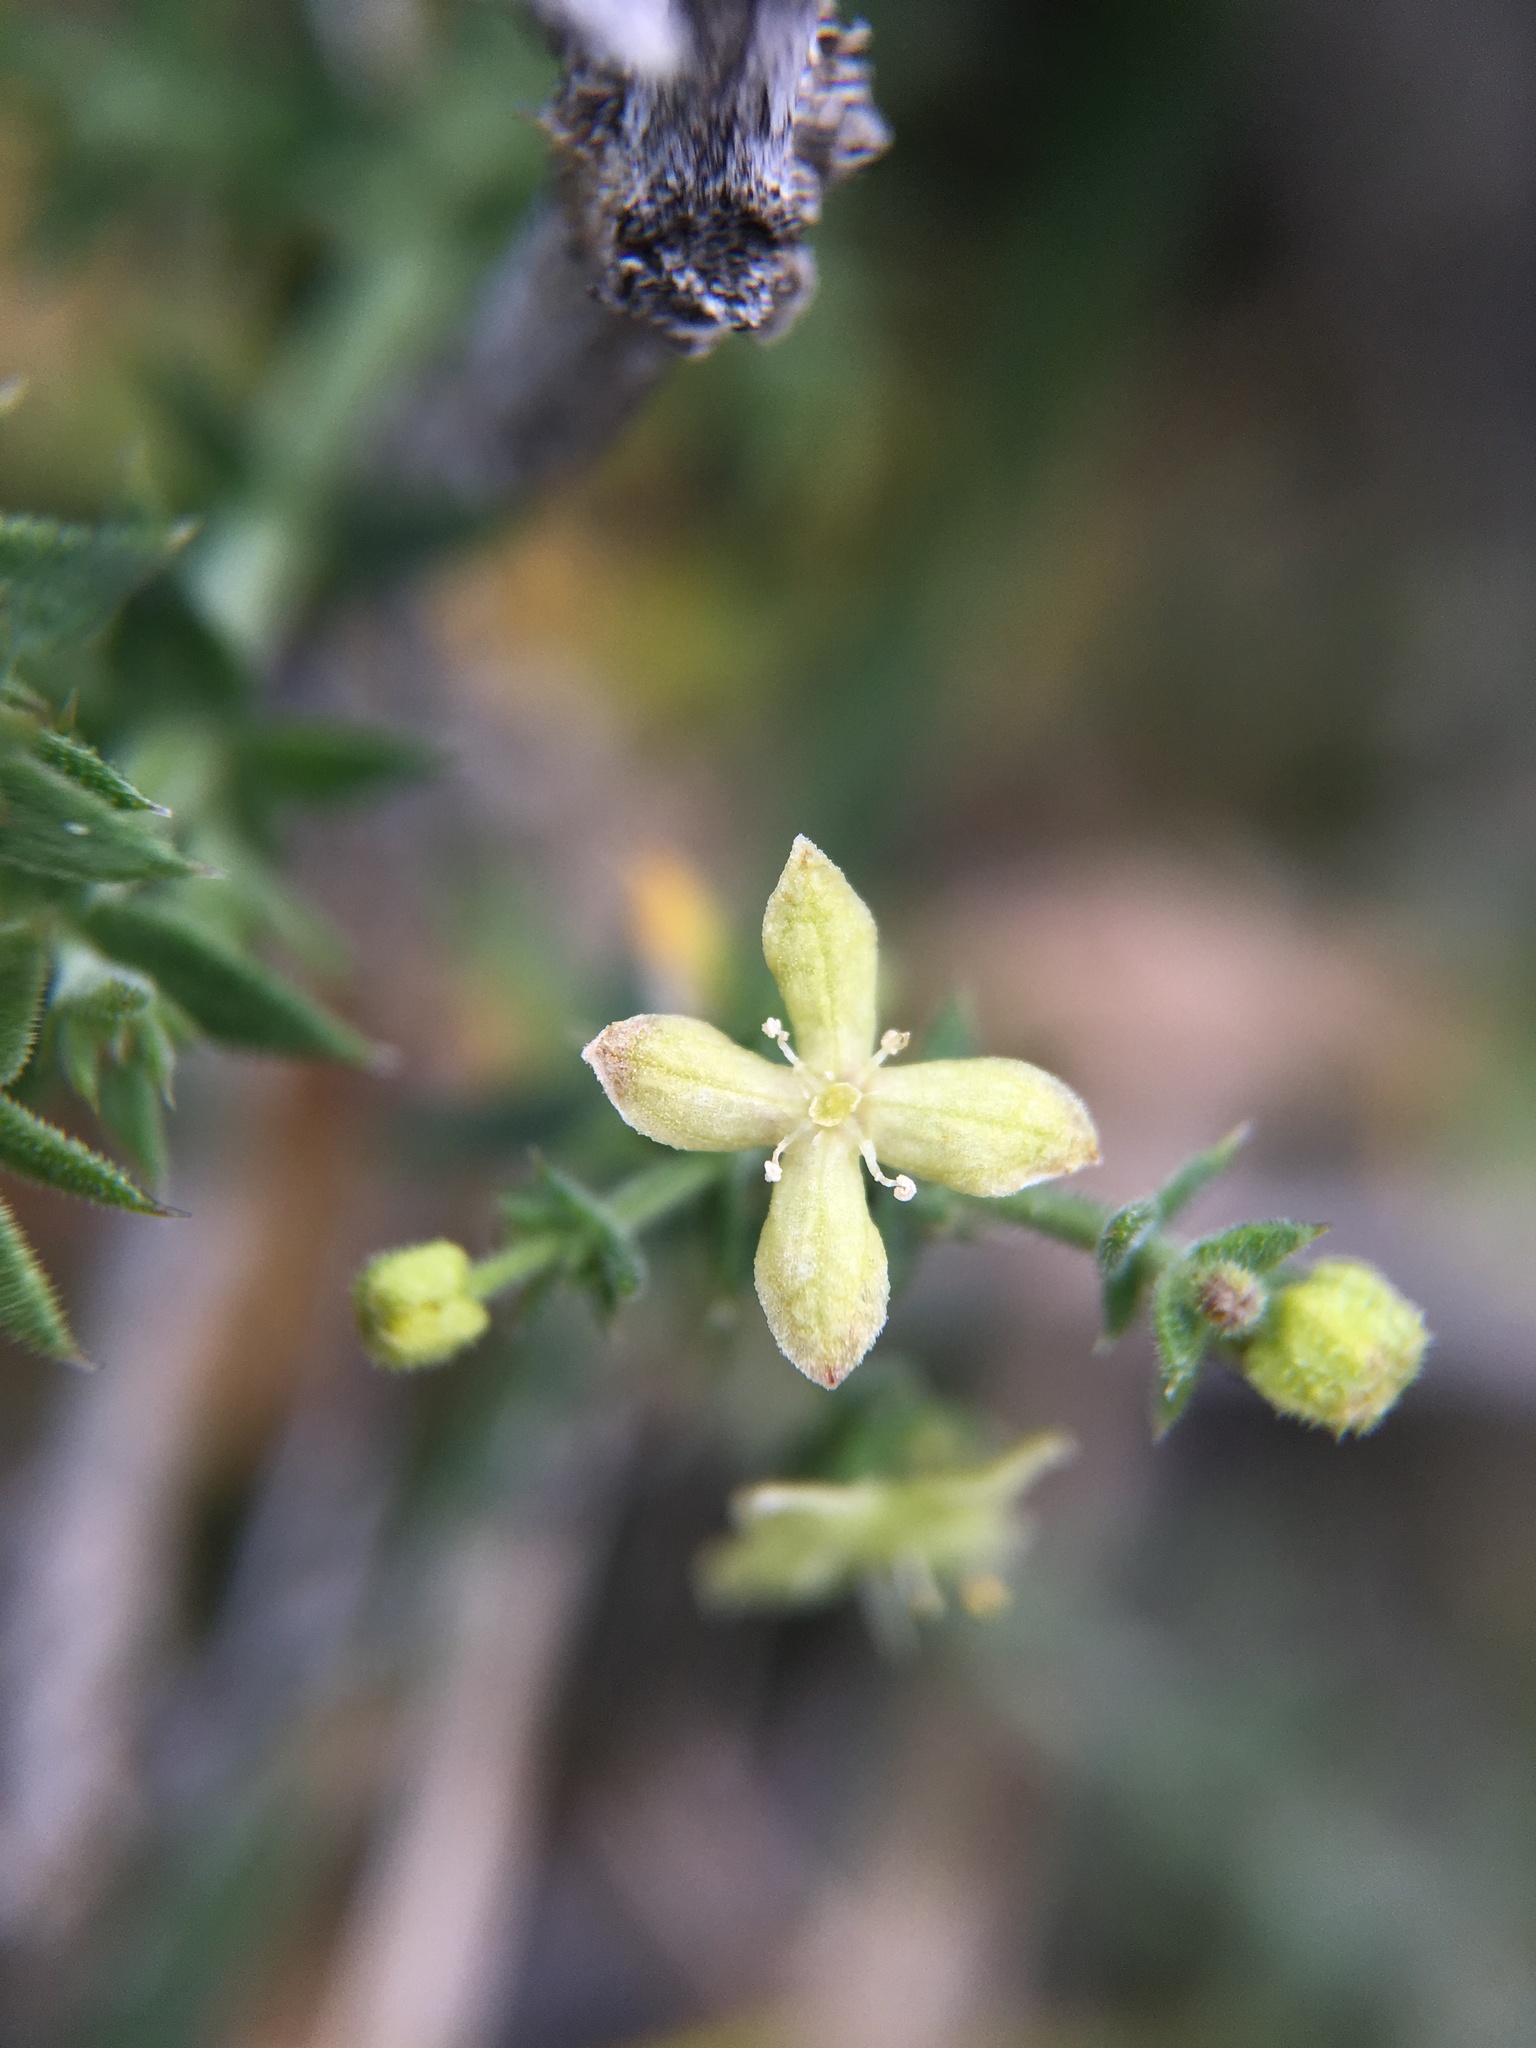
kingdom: Plantae
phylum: Tracheophyta
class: Magnoliopsida
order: Gentianales
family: Rubiaceae
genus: Galium
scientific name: Galium stellatum
